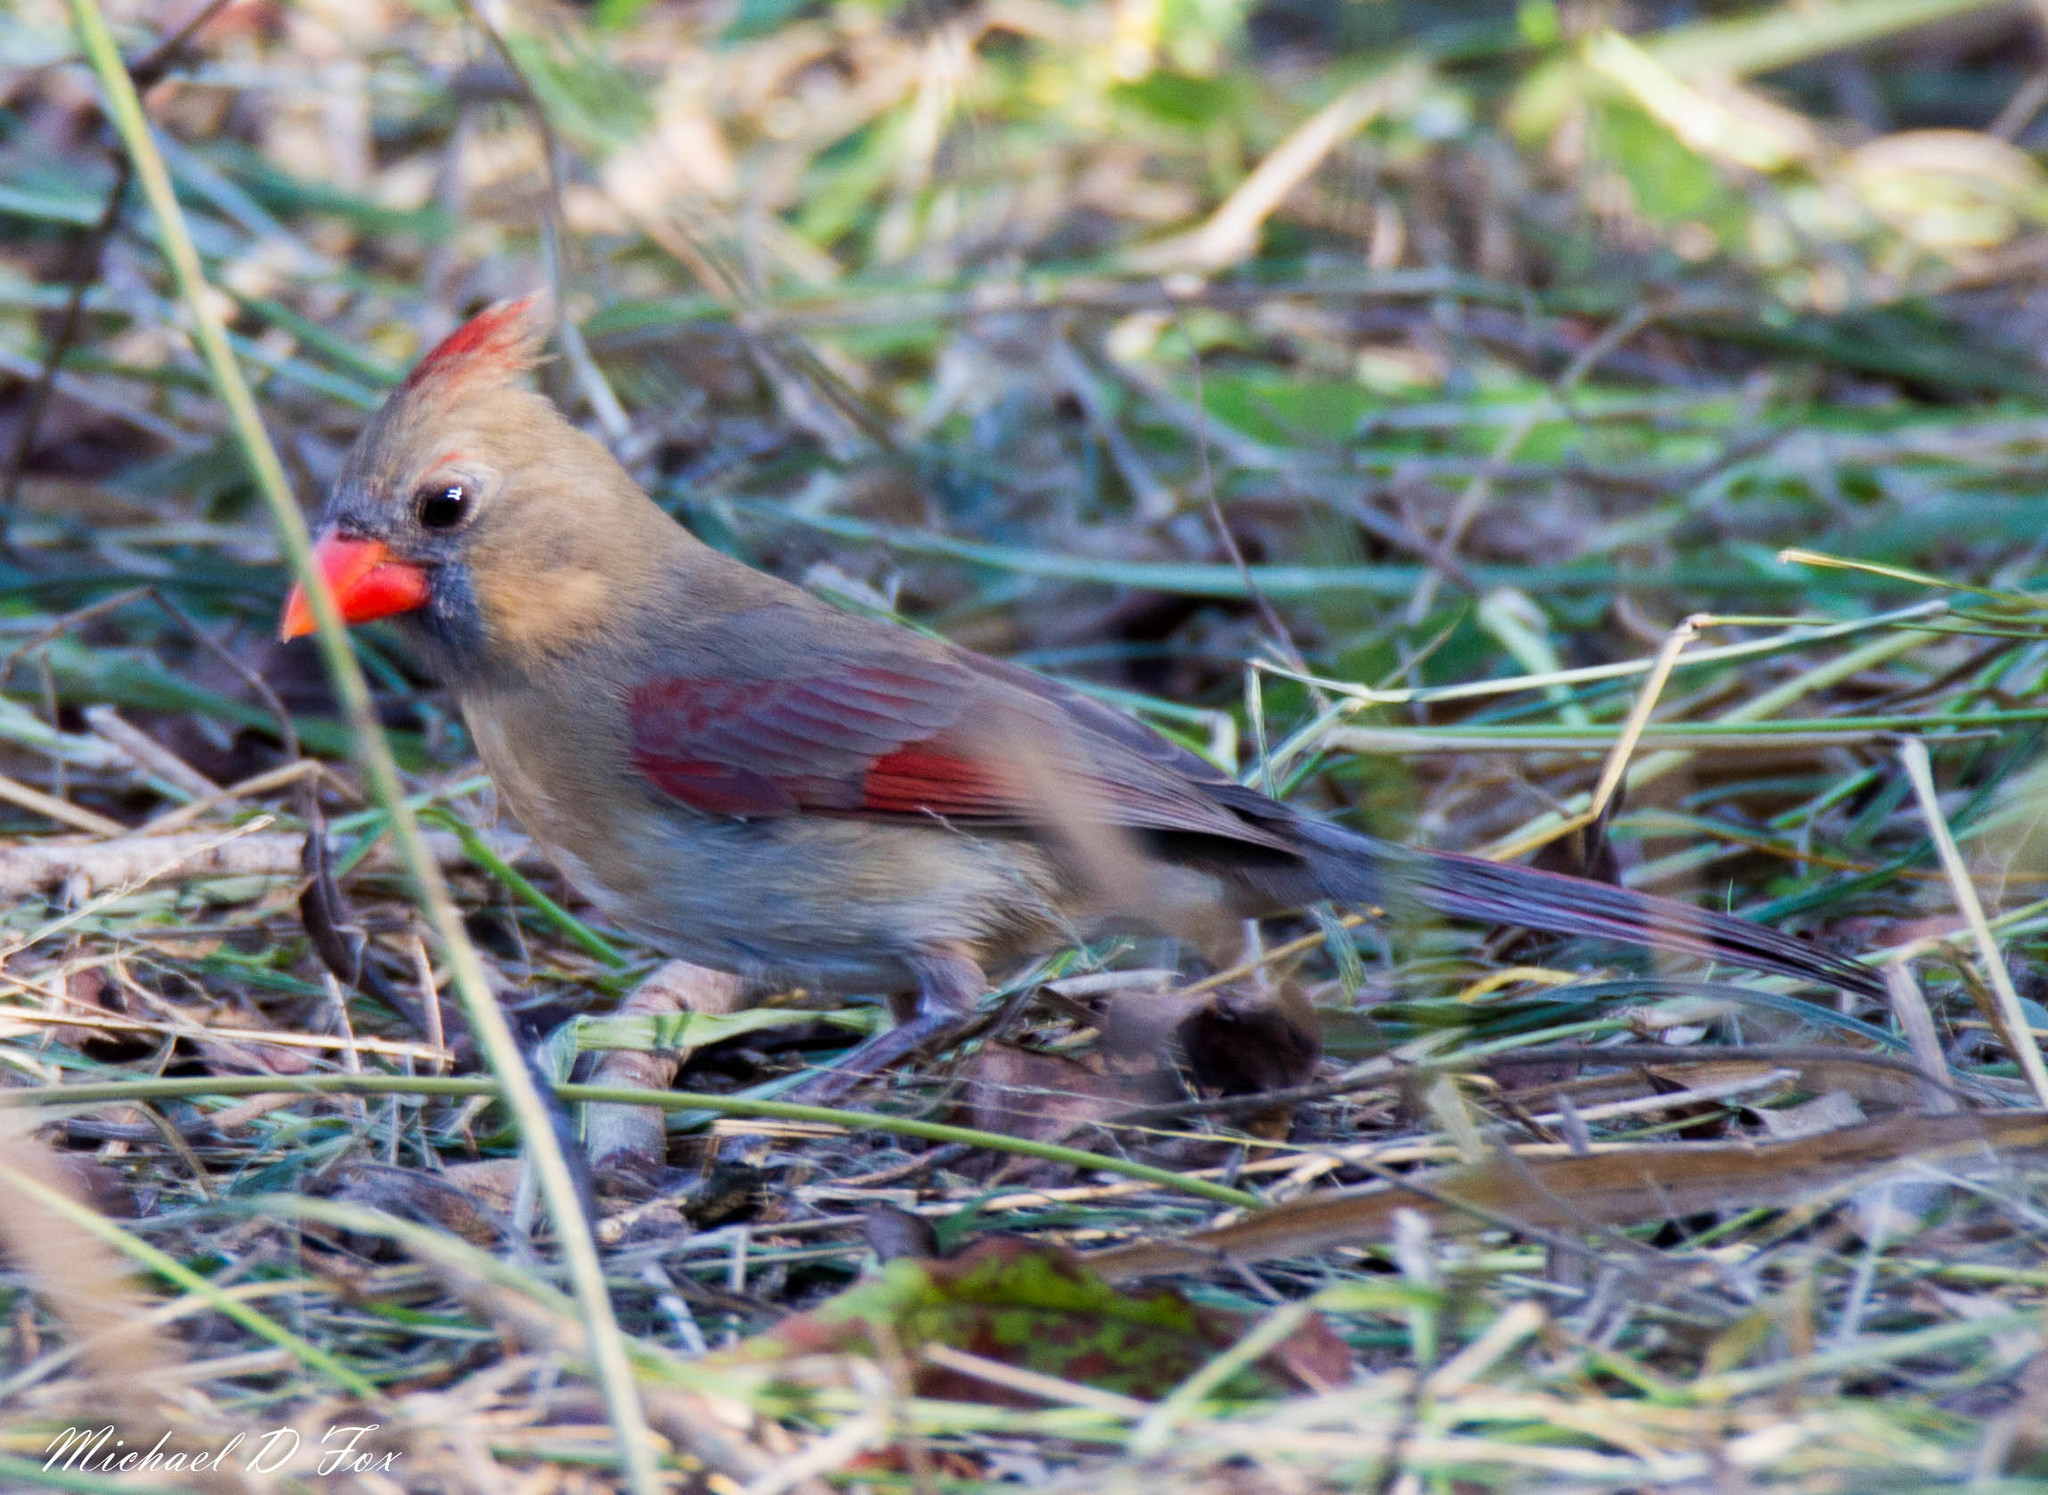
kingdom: Animalia
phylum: Chordata
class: Aves
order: Passeriformes
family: Cardinalidae
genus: Cardinalis
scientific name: Cardinalis cardinalis
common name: Northern cardinal
